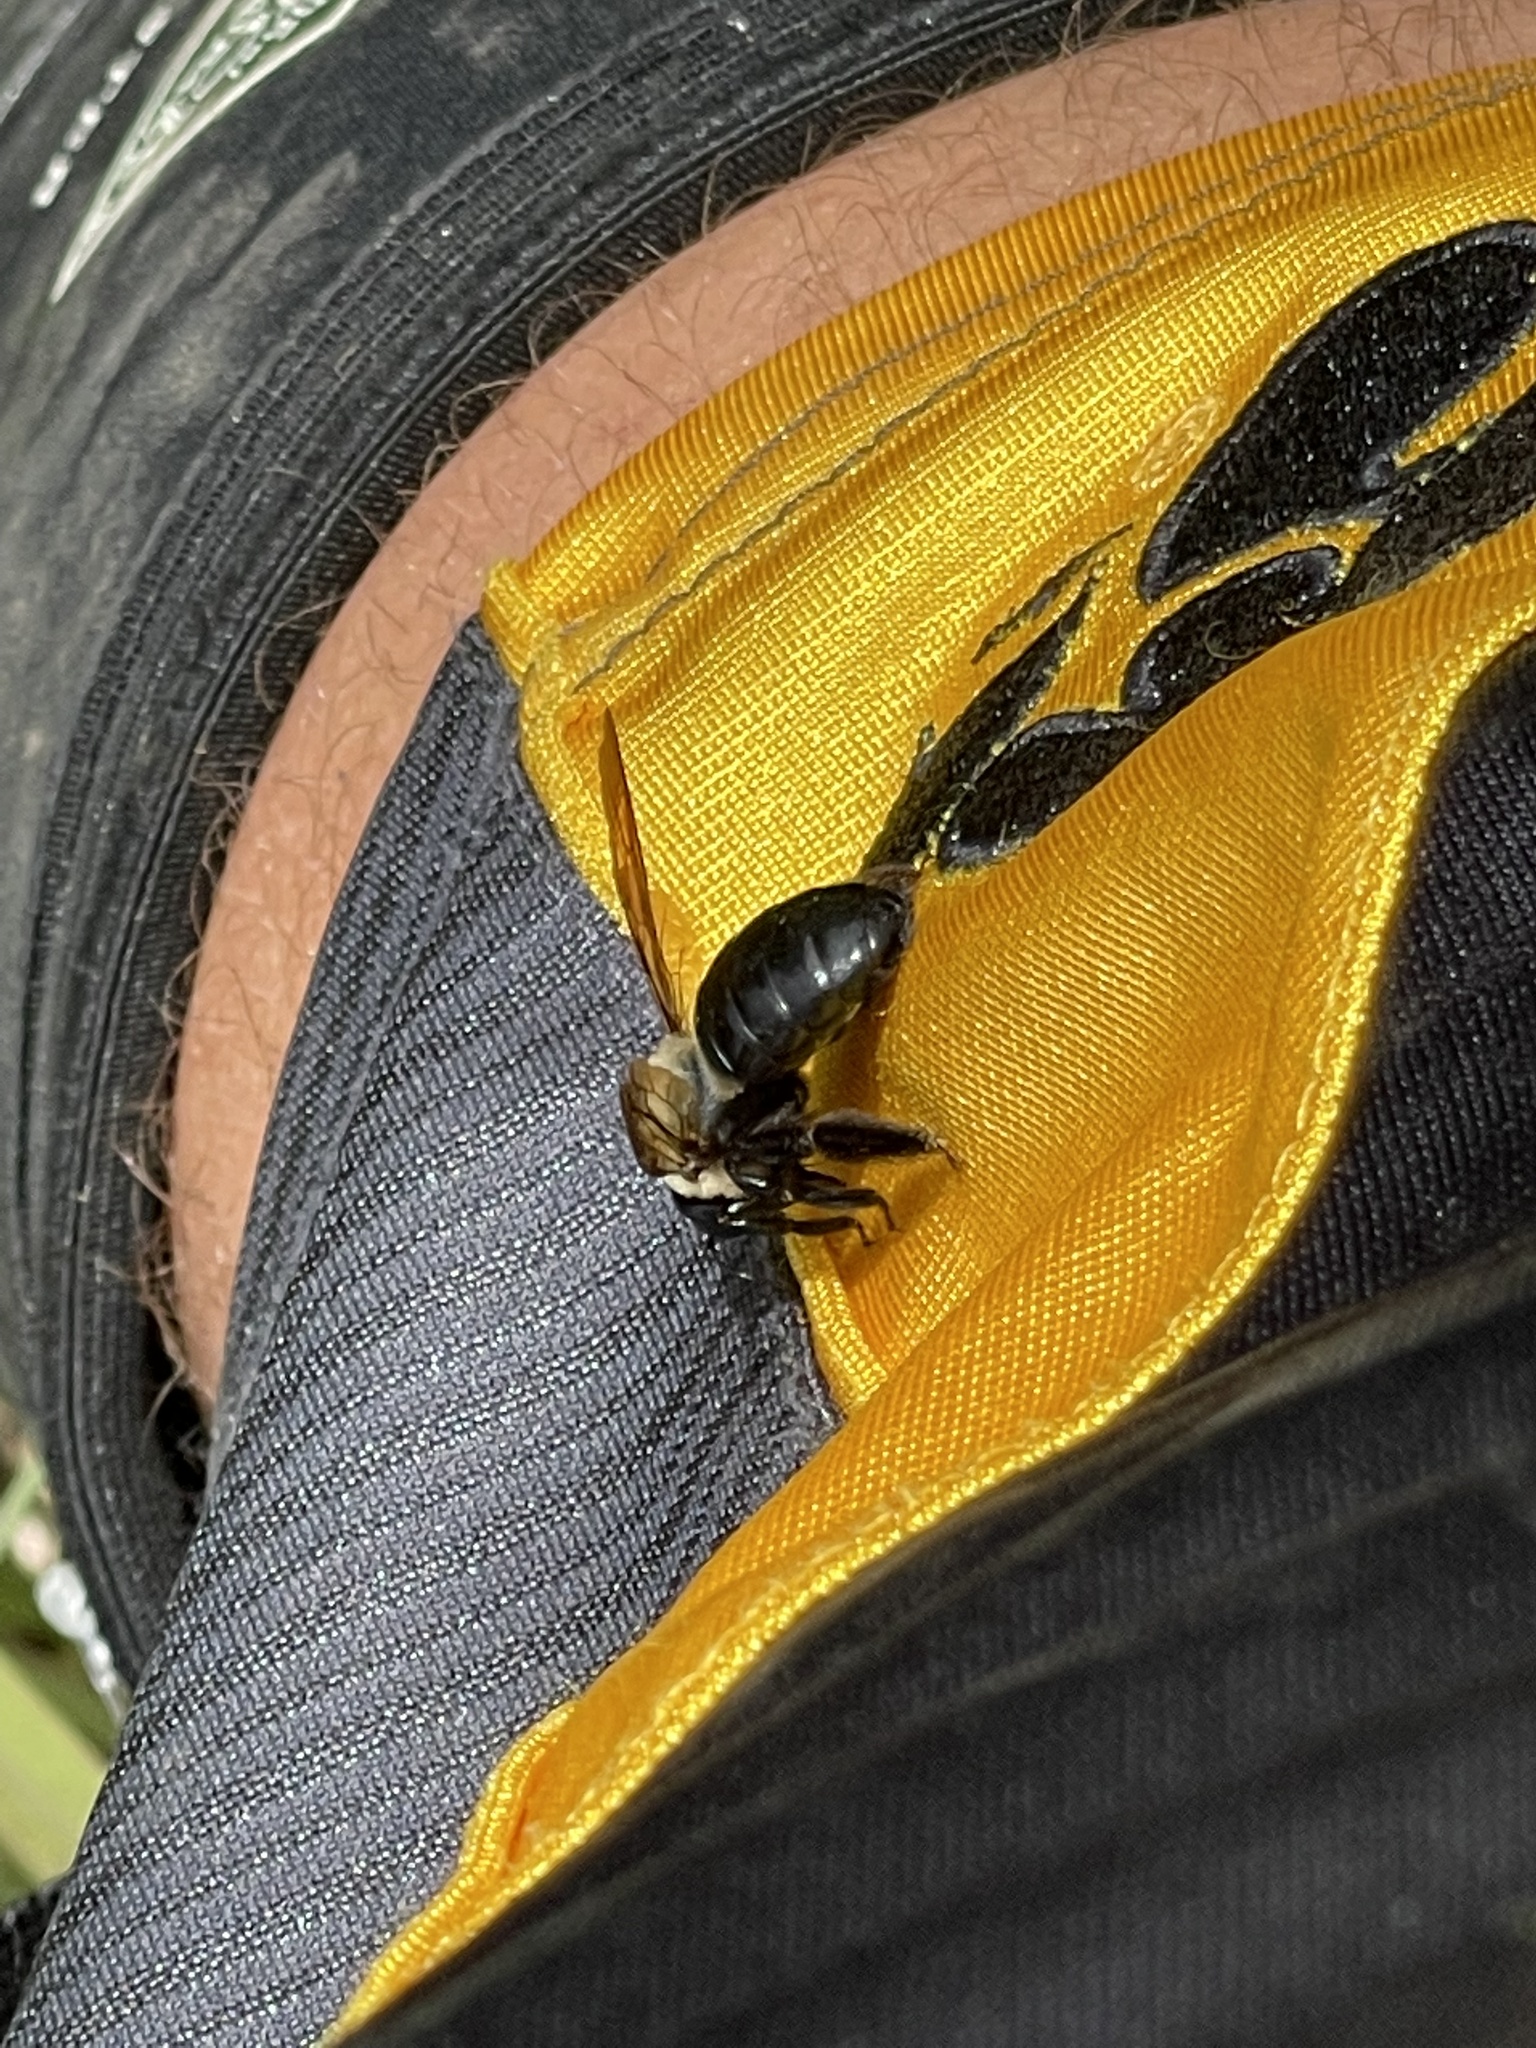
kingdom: Animalia
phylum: Arthropoda
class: Insecta
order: Hymenoptera
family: Apidae
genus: Xylocopa
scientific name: Xylocopa virginica
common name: Carpenter bee
